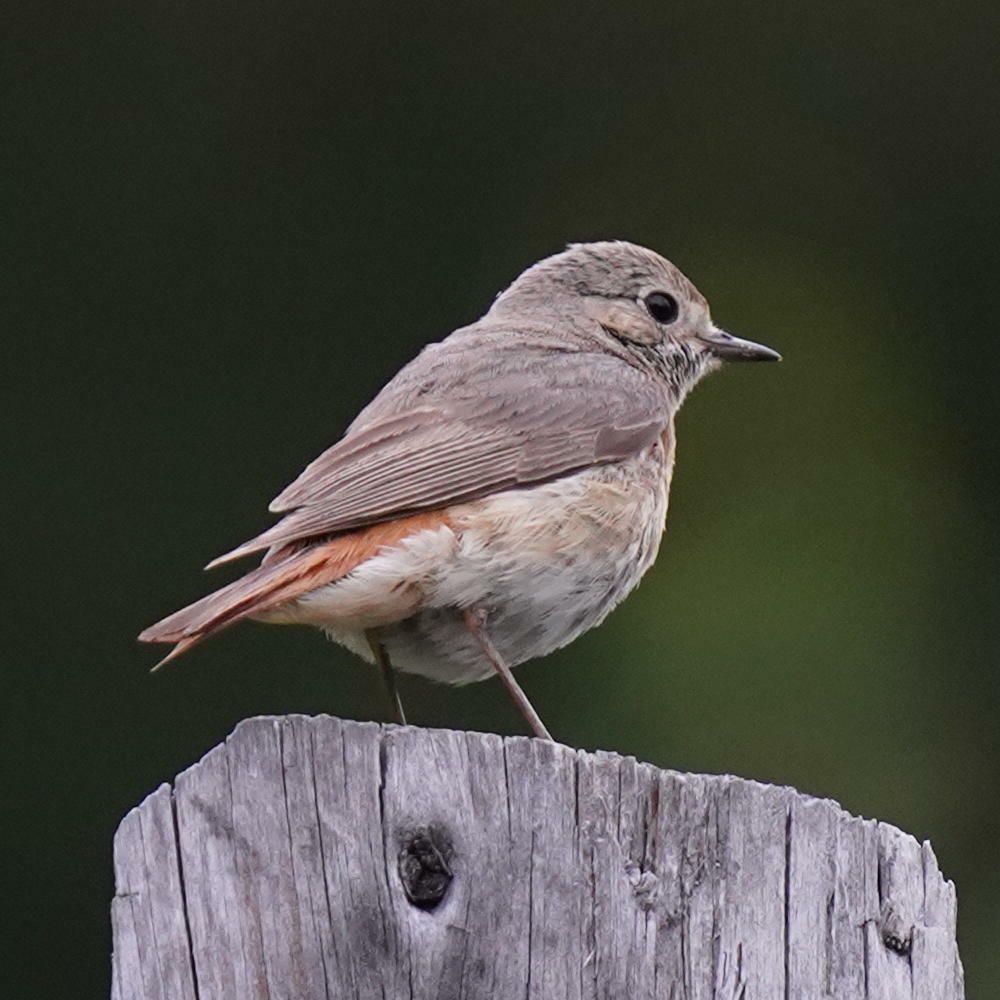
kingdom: Animalia
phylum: Chordata
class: Aves
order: Passeriformes
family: Muscicapidae
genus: Phoenicurus
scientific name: Phoenicurus phoenicurus
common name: Common redstart
